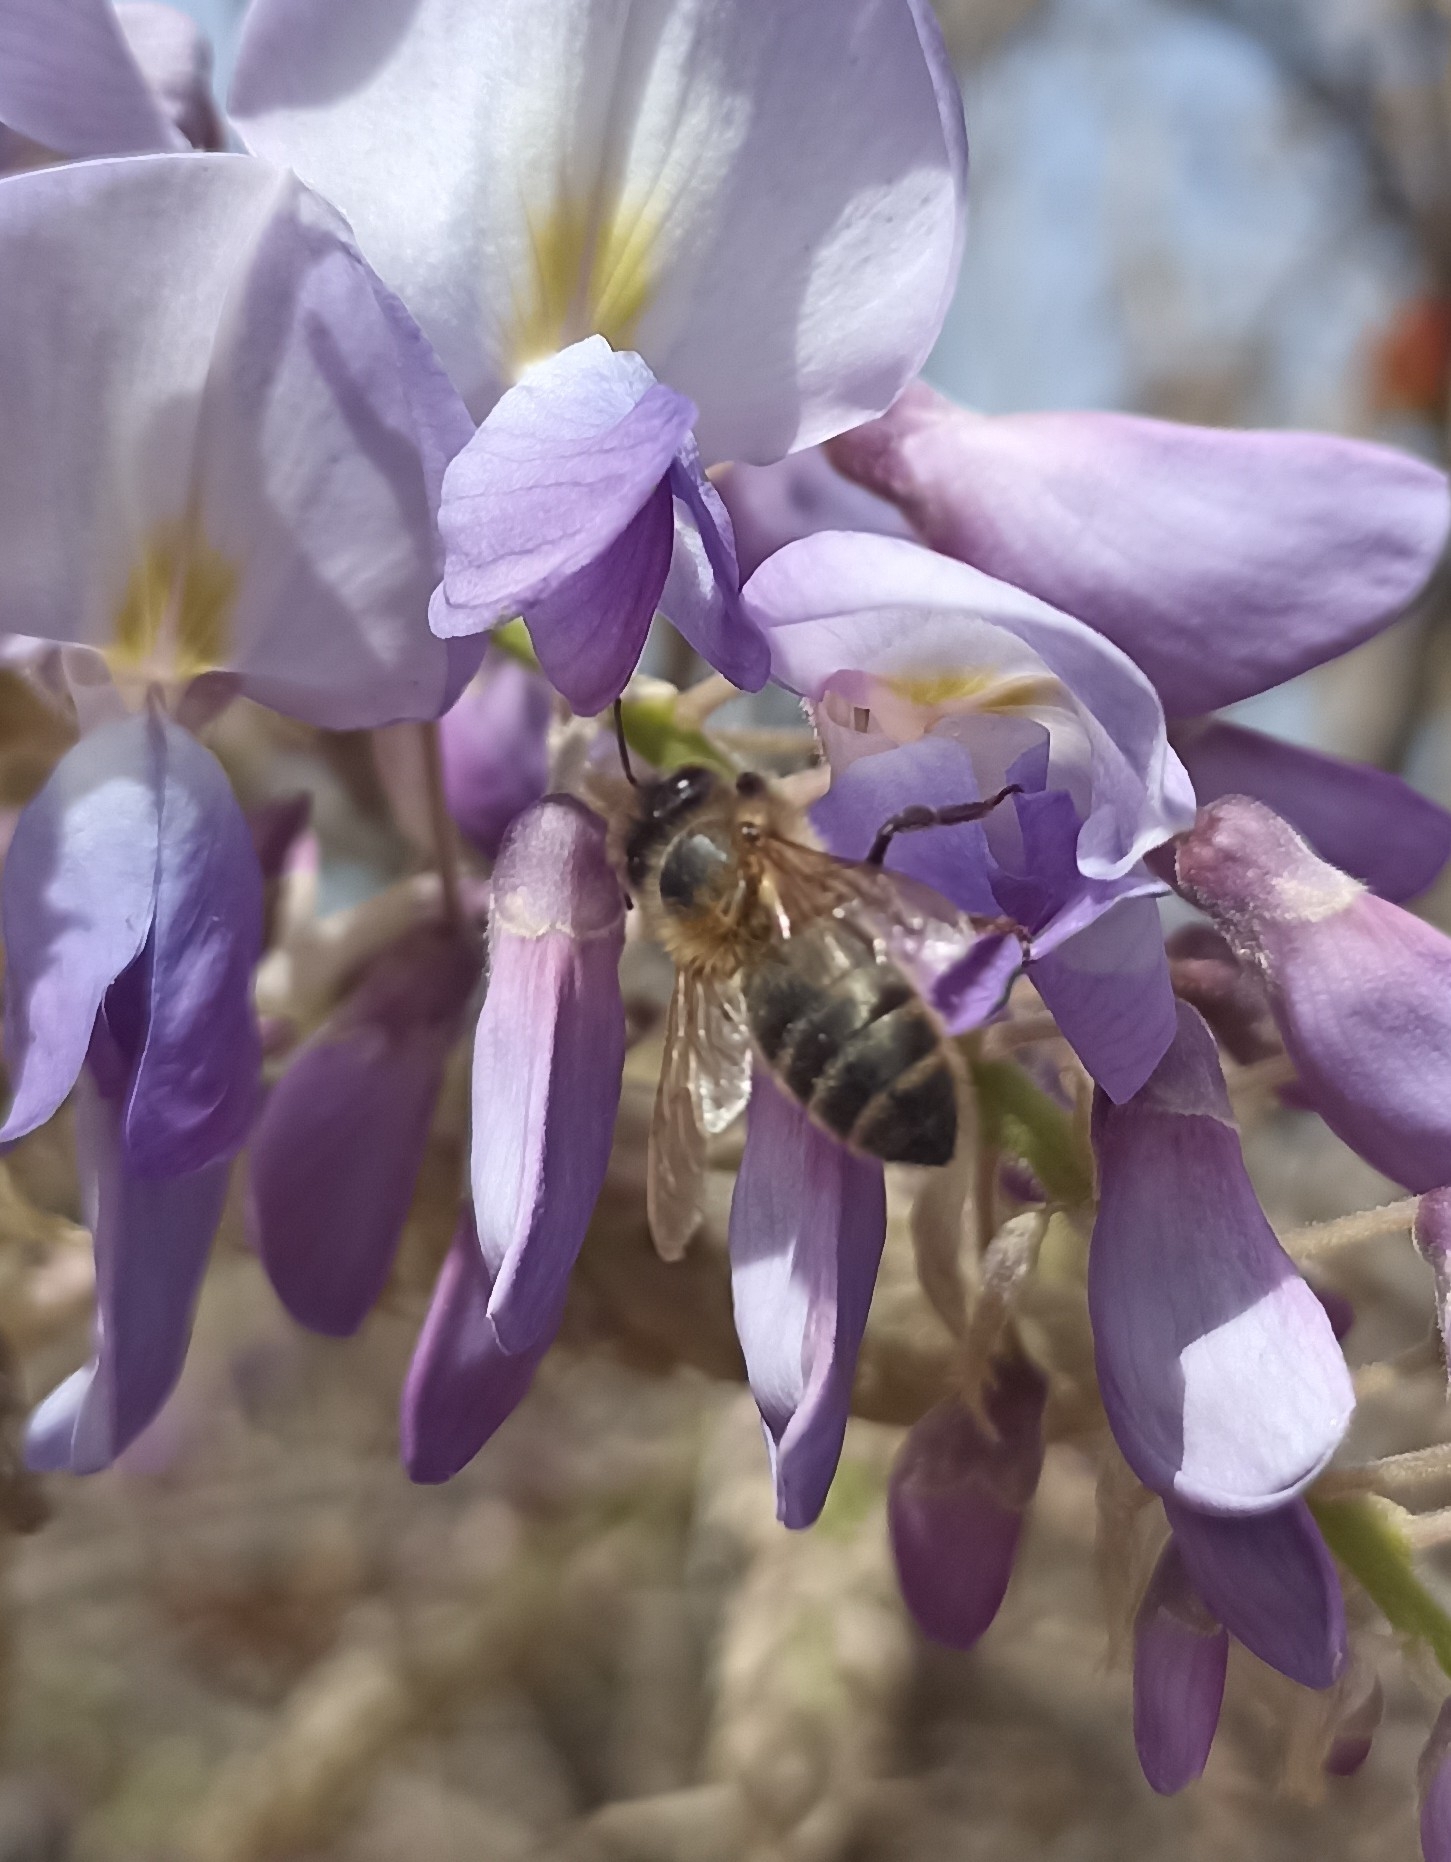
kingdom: Animalia
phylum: Arthropoda
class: Insecta
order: Hymenoptera
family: Apidae
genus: Apis
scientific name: Apis mellifera
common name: Honey bee
